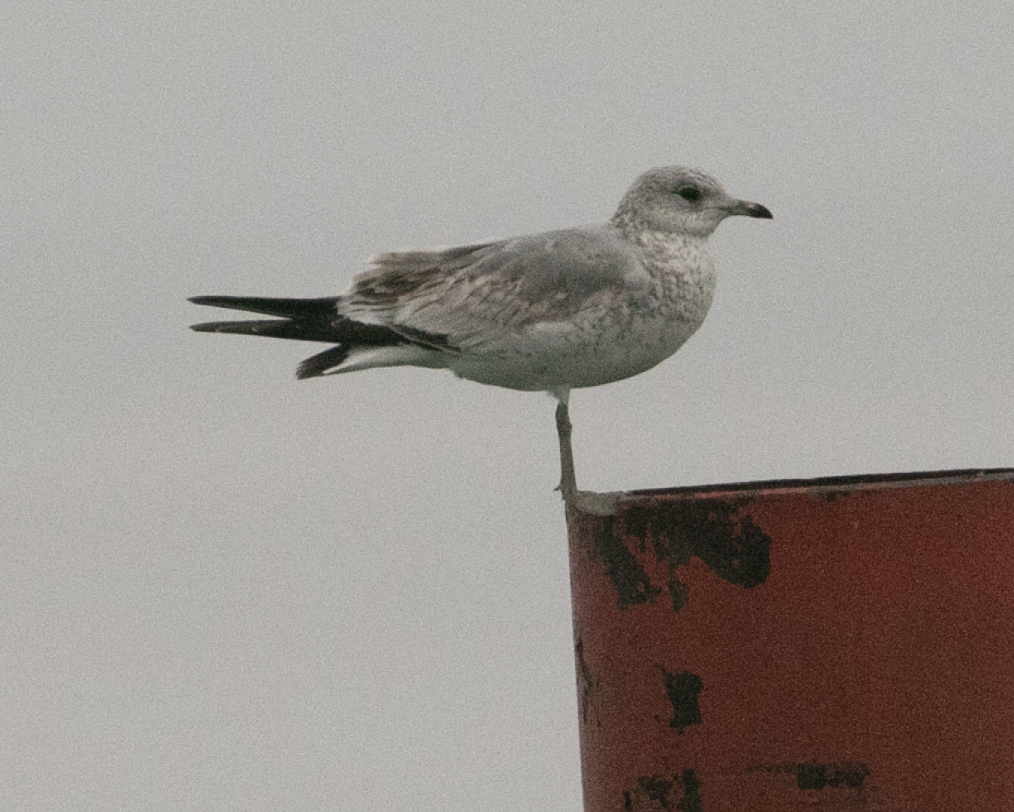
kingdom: Animalia
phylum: Chordata
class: Aves
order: Charadriiformes
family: Laridae
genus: Larus
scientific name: Larus canus
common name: Mew gull
